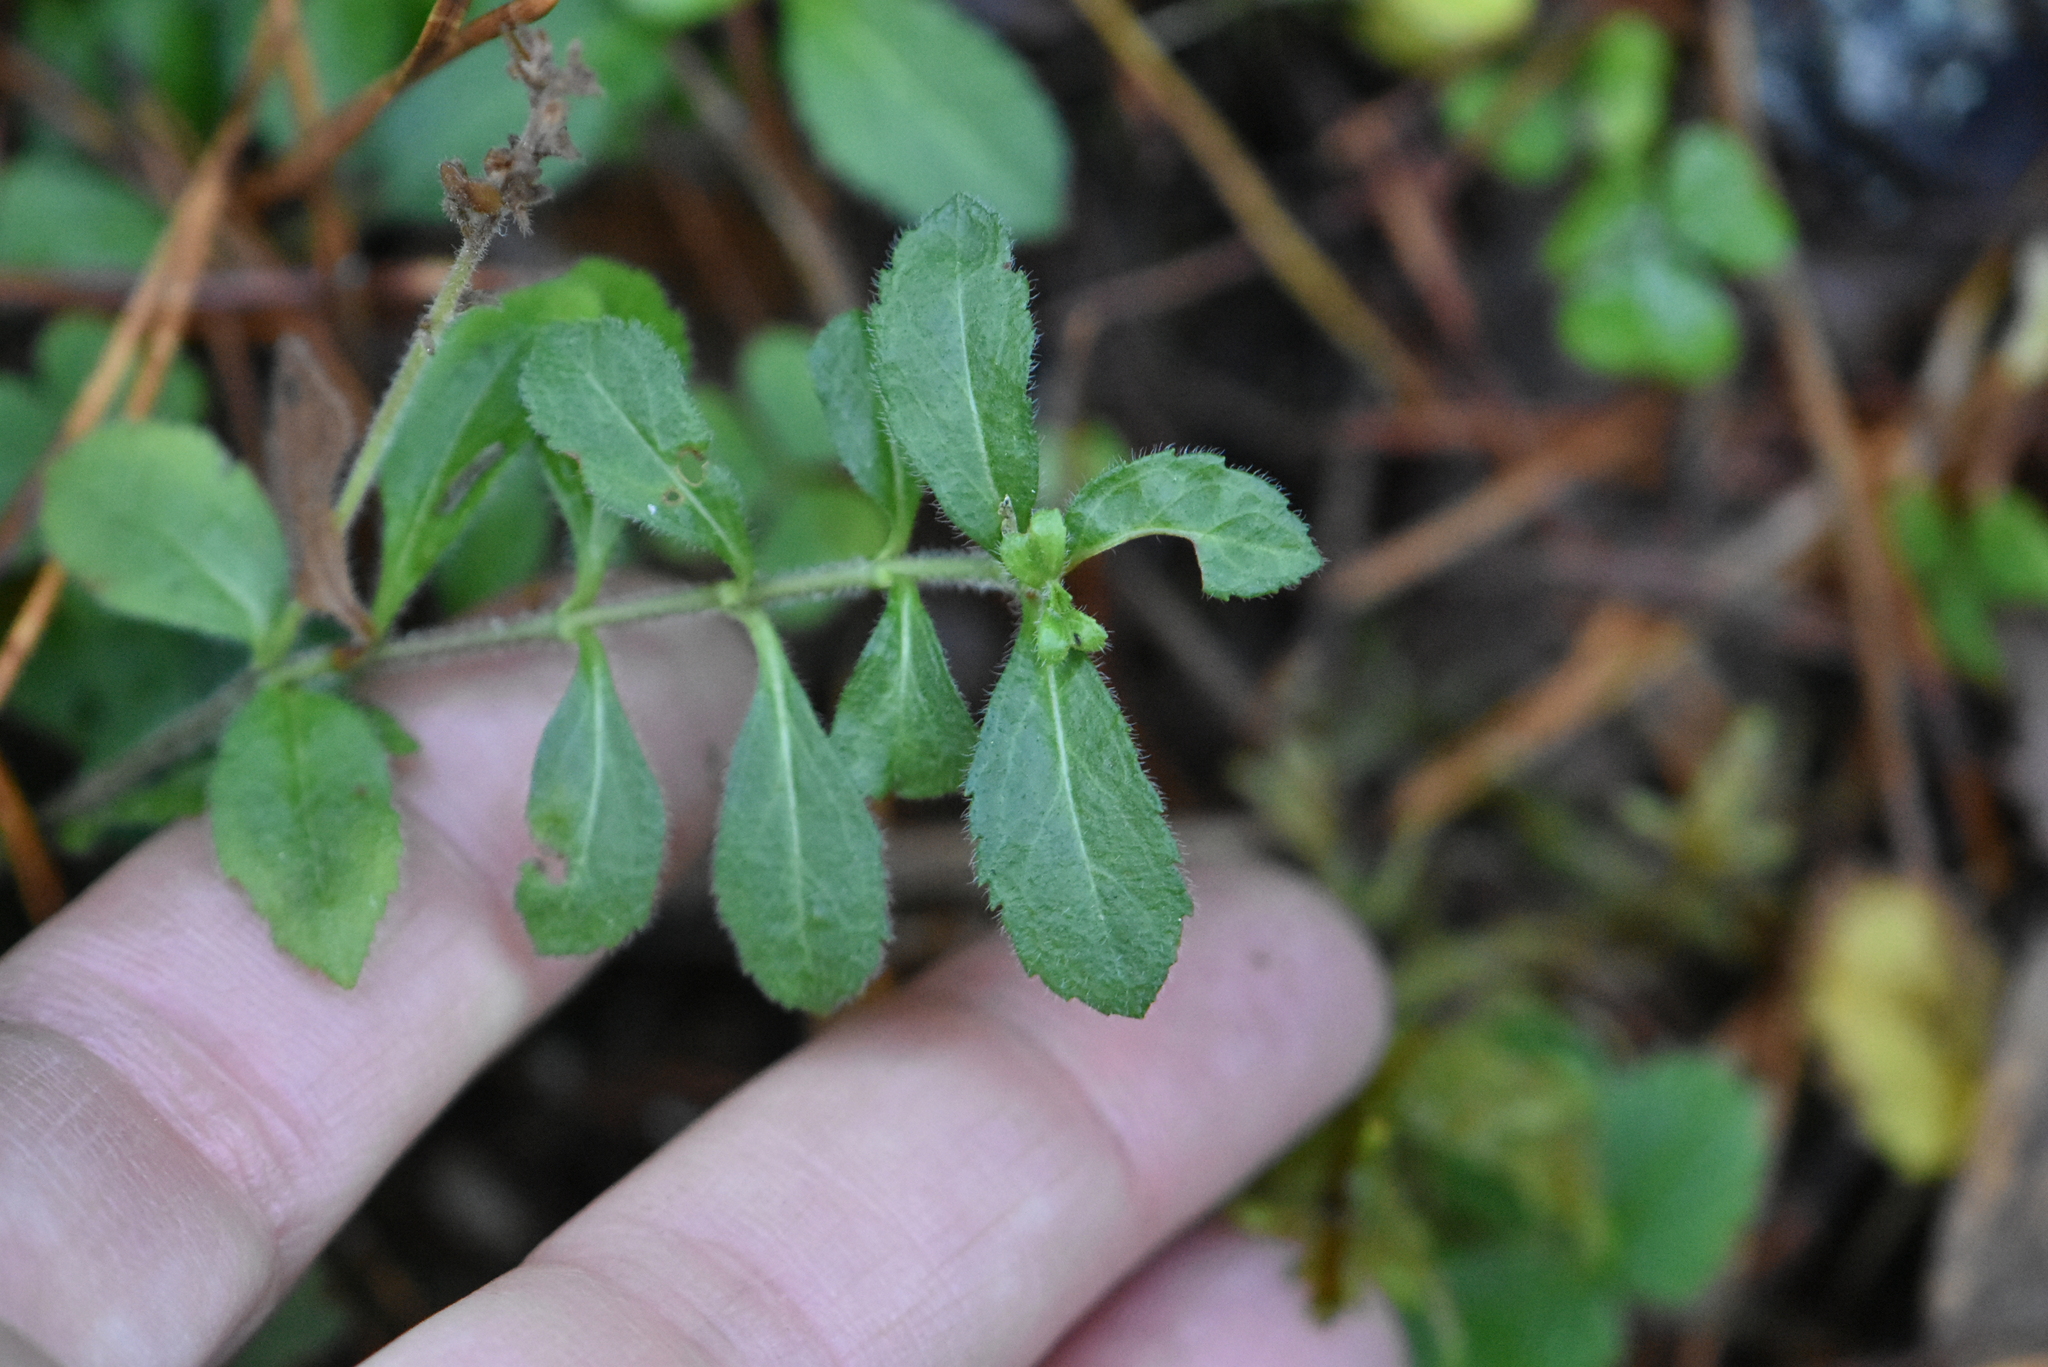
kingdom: Plantae
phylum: Tracheophyta
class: Magnoliopsida
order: Lamiales
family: Plantaginaceae
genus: Veronica
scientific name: Veronica officinalis
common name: Common speedwell
